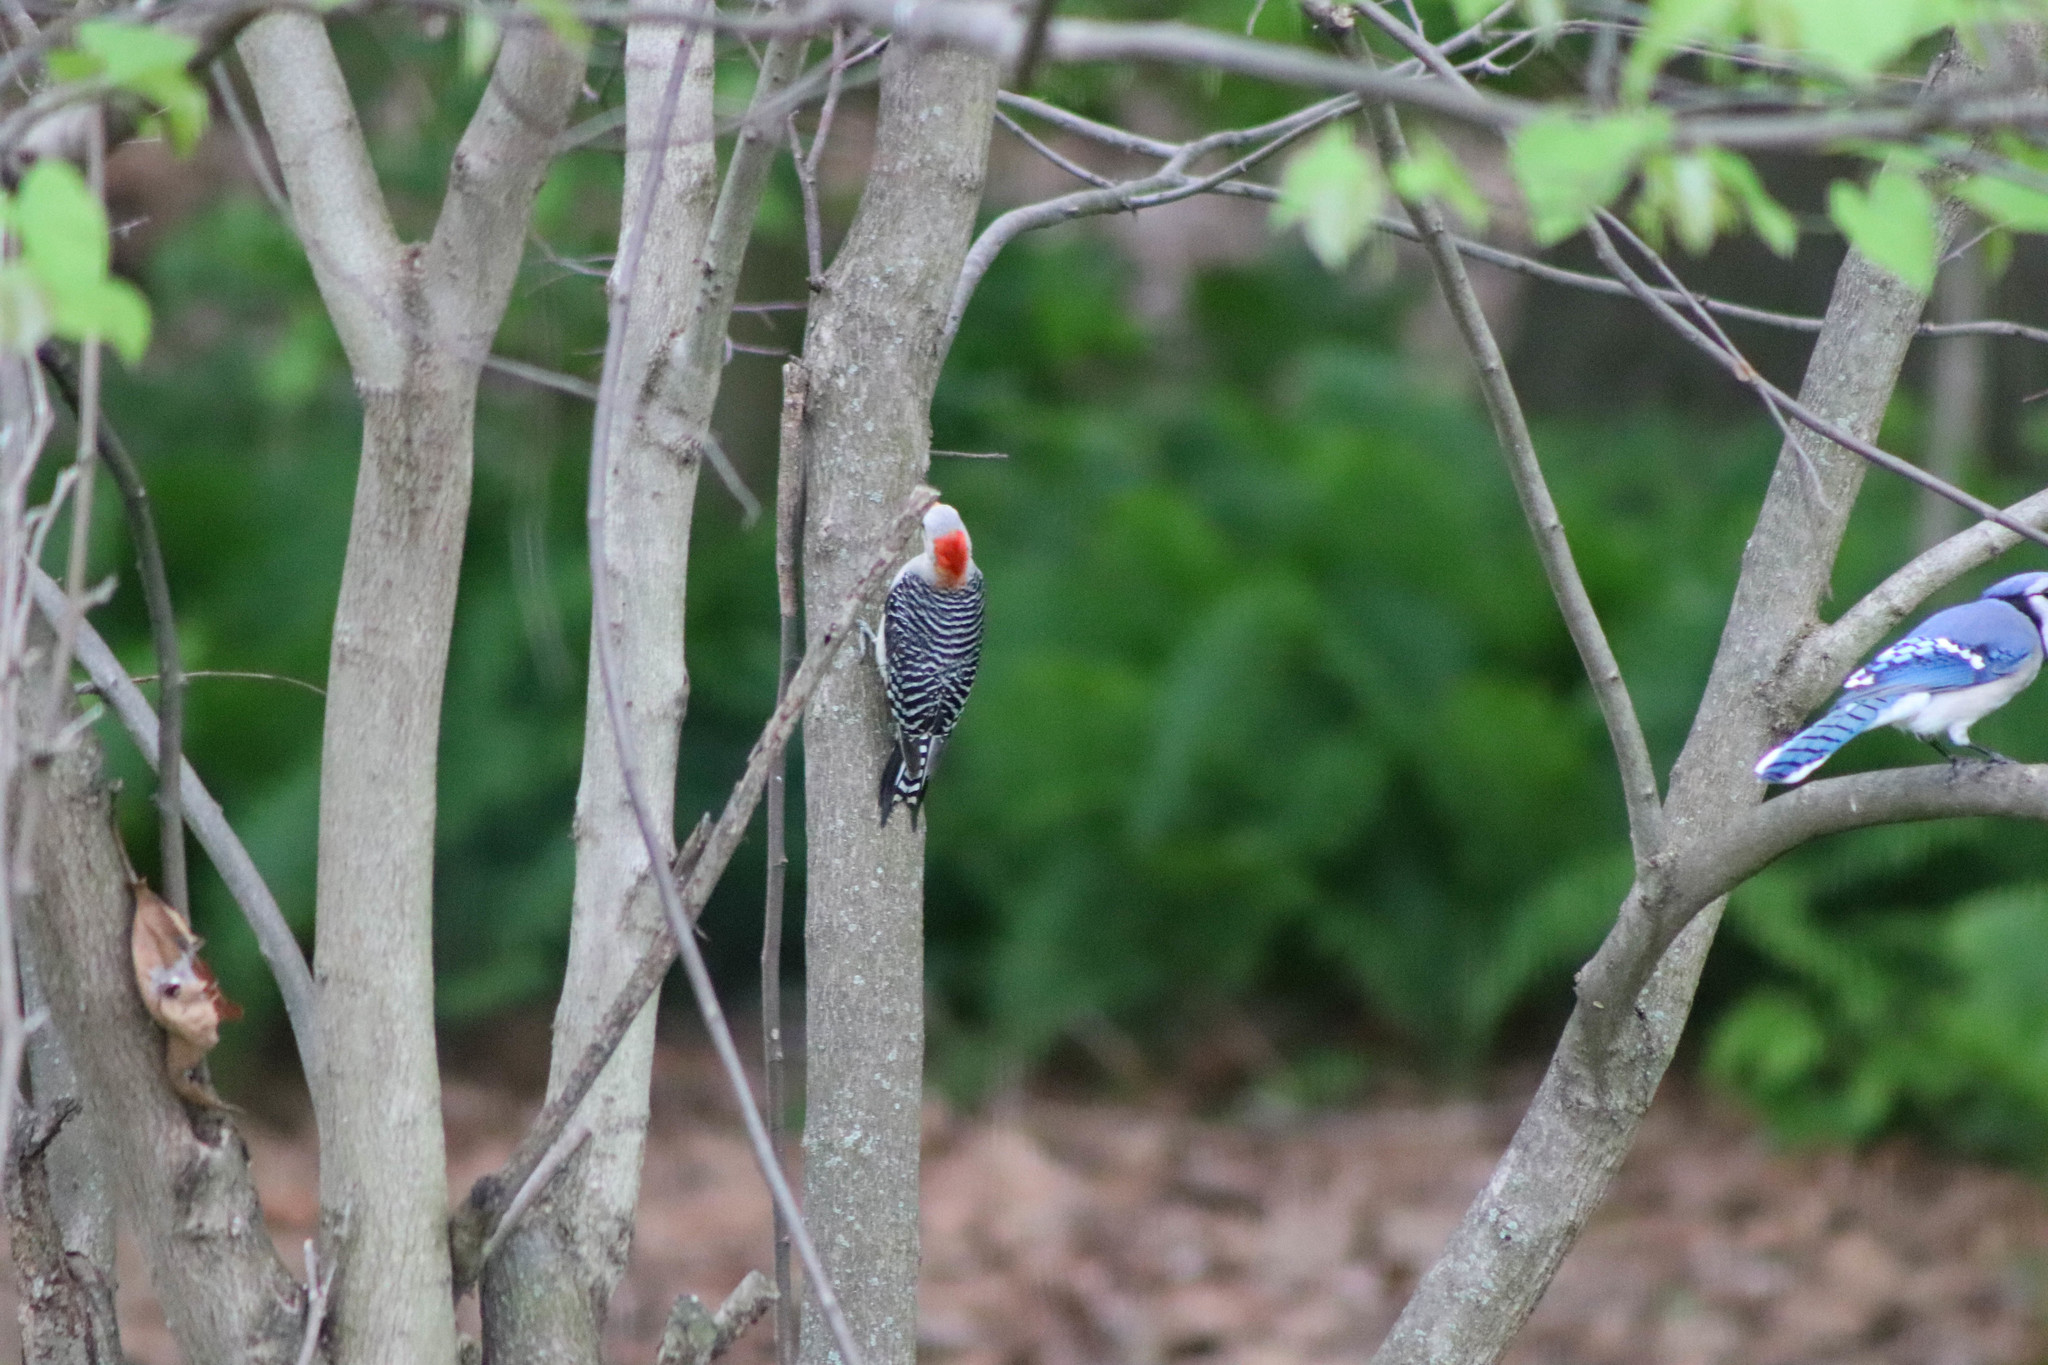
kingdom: Animalia
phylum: Chordata
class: Aves
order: Piciformes
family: Picidae
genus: Melanerpes
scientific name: Melanerpes carolinus
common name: Red-bellied woodpecker
